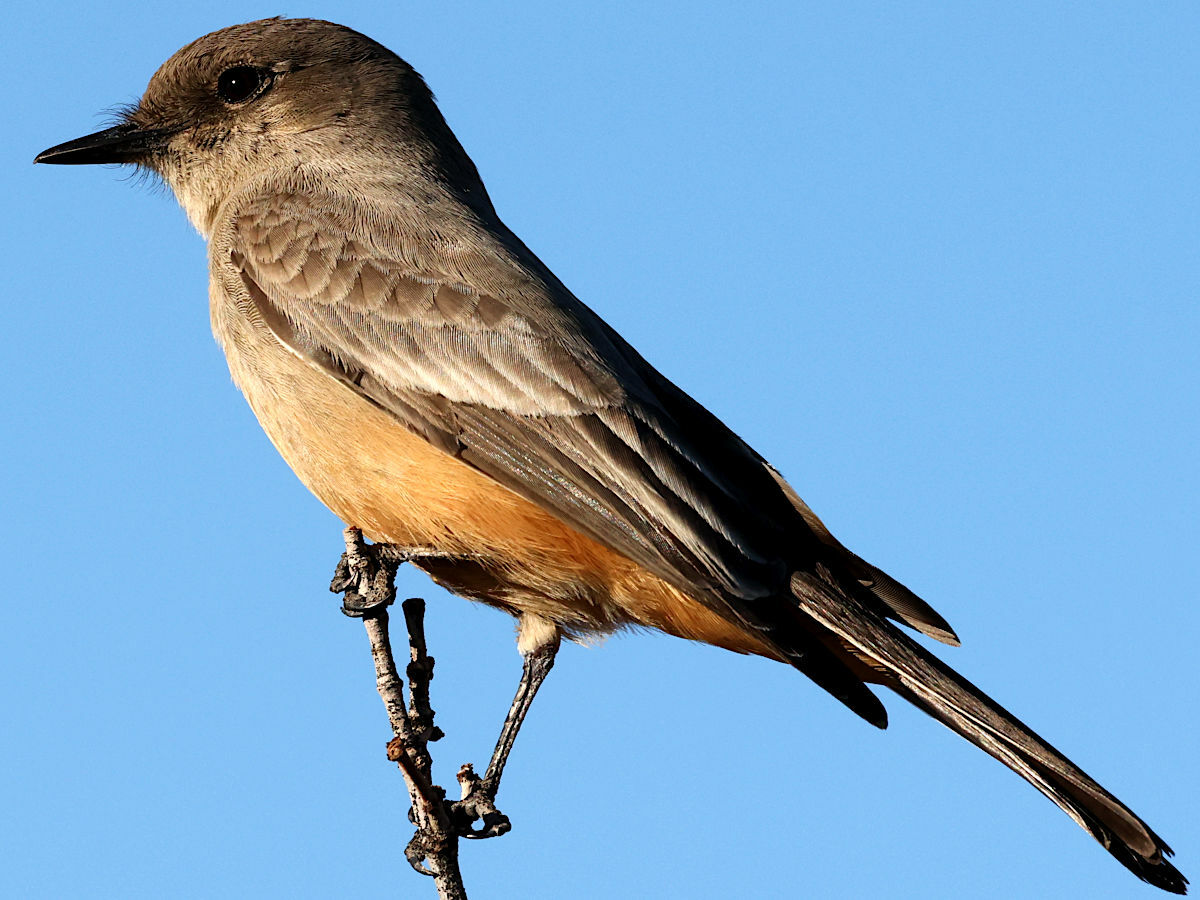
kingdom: Animalia
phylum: Chordata
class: Aves
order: Passeriformes
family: Tyrannidae
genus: Sayornis
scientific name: Sayornis saya
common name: Say's phoebe
